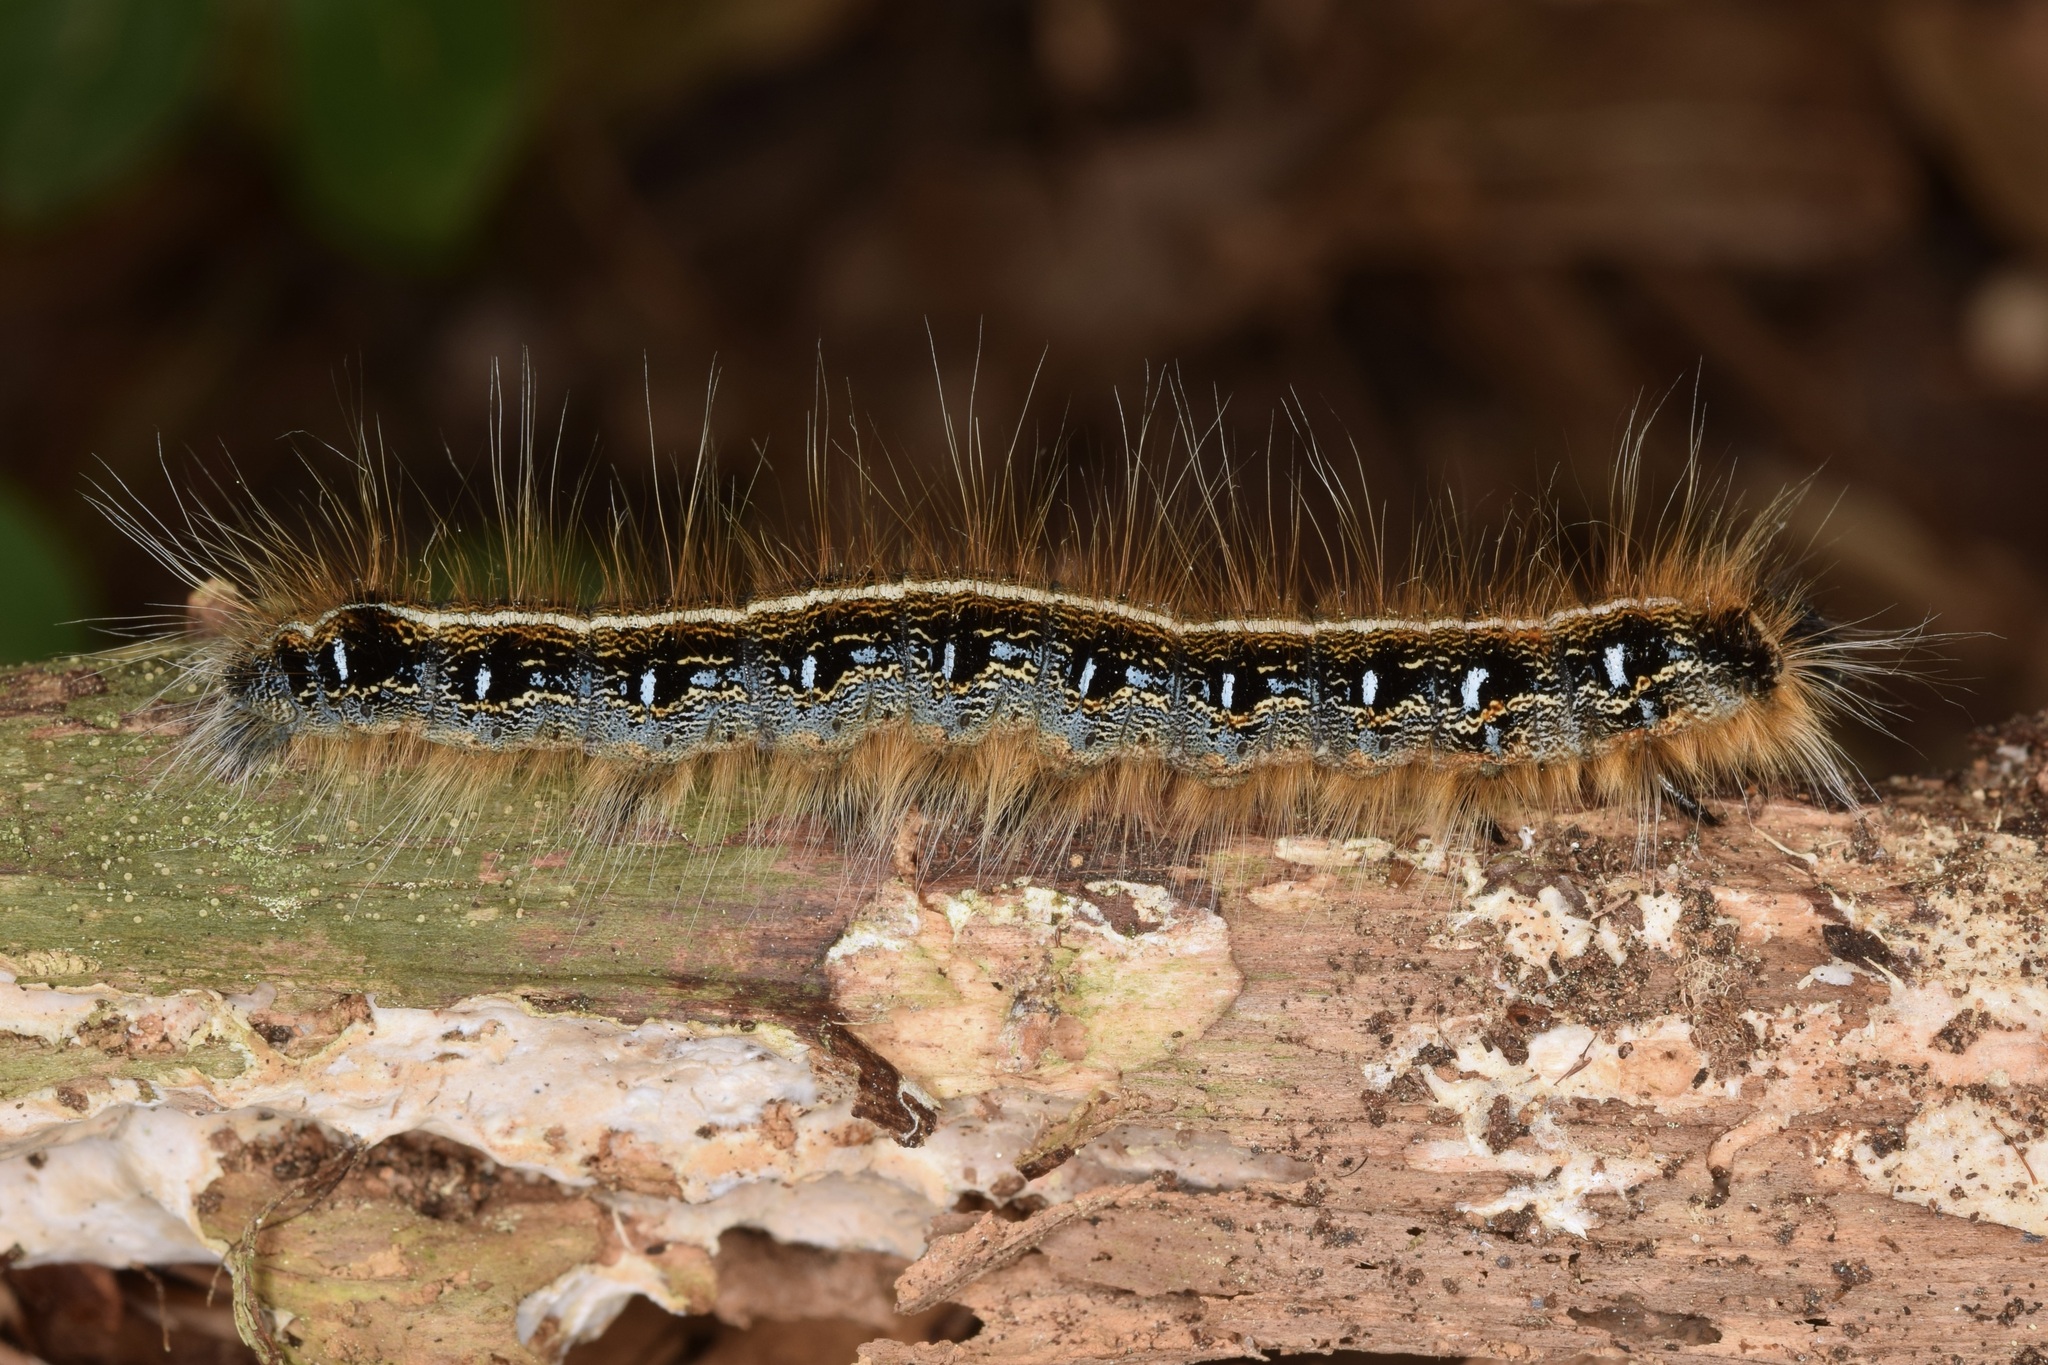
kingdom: Animalia
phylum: Arthropoda
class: Insecta
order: Lepidoptera
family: Lasiocampidae
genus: Malacosoma
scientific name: Malacosoma americana
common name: Eastern tent caterpillar moth
